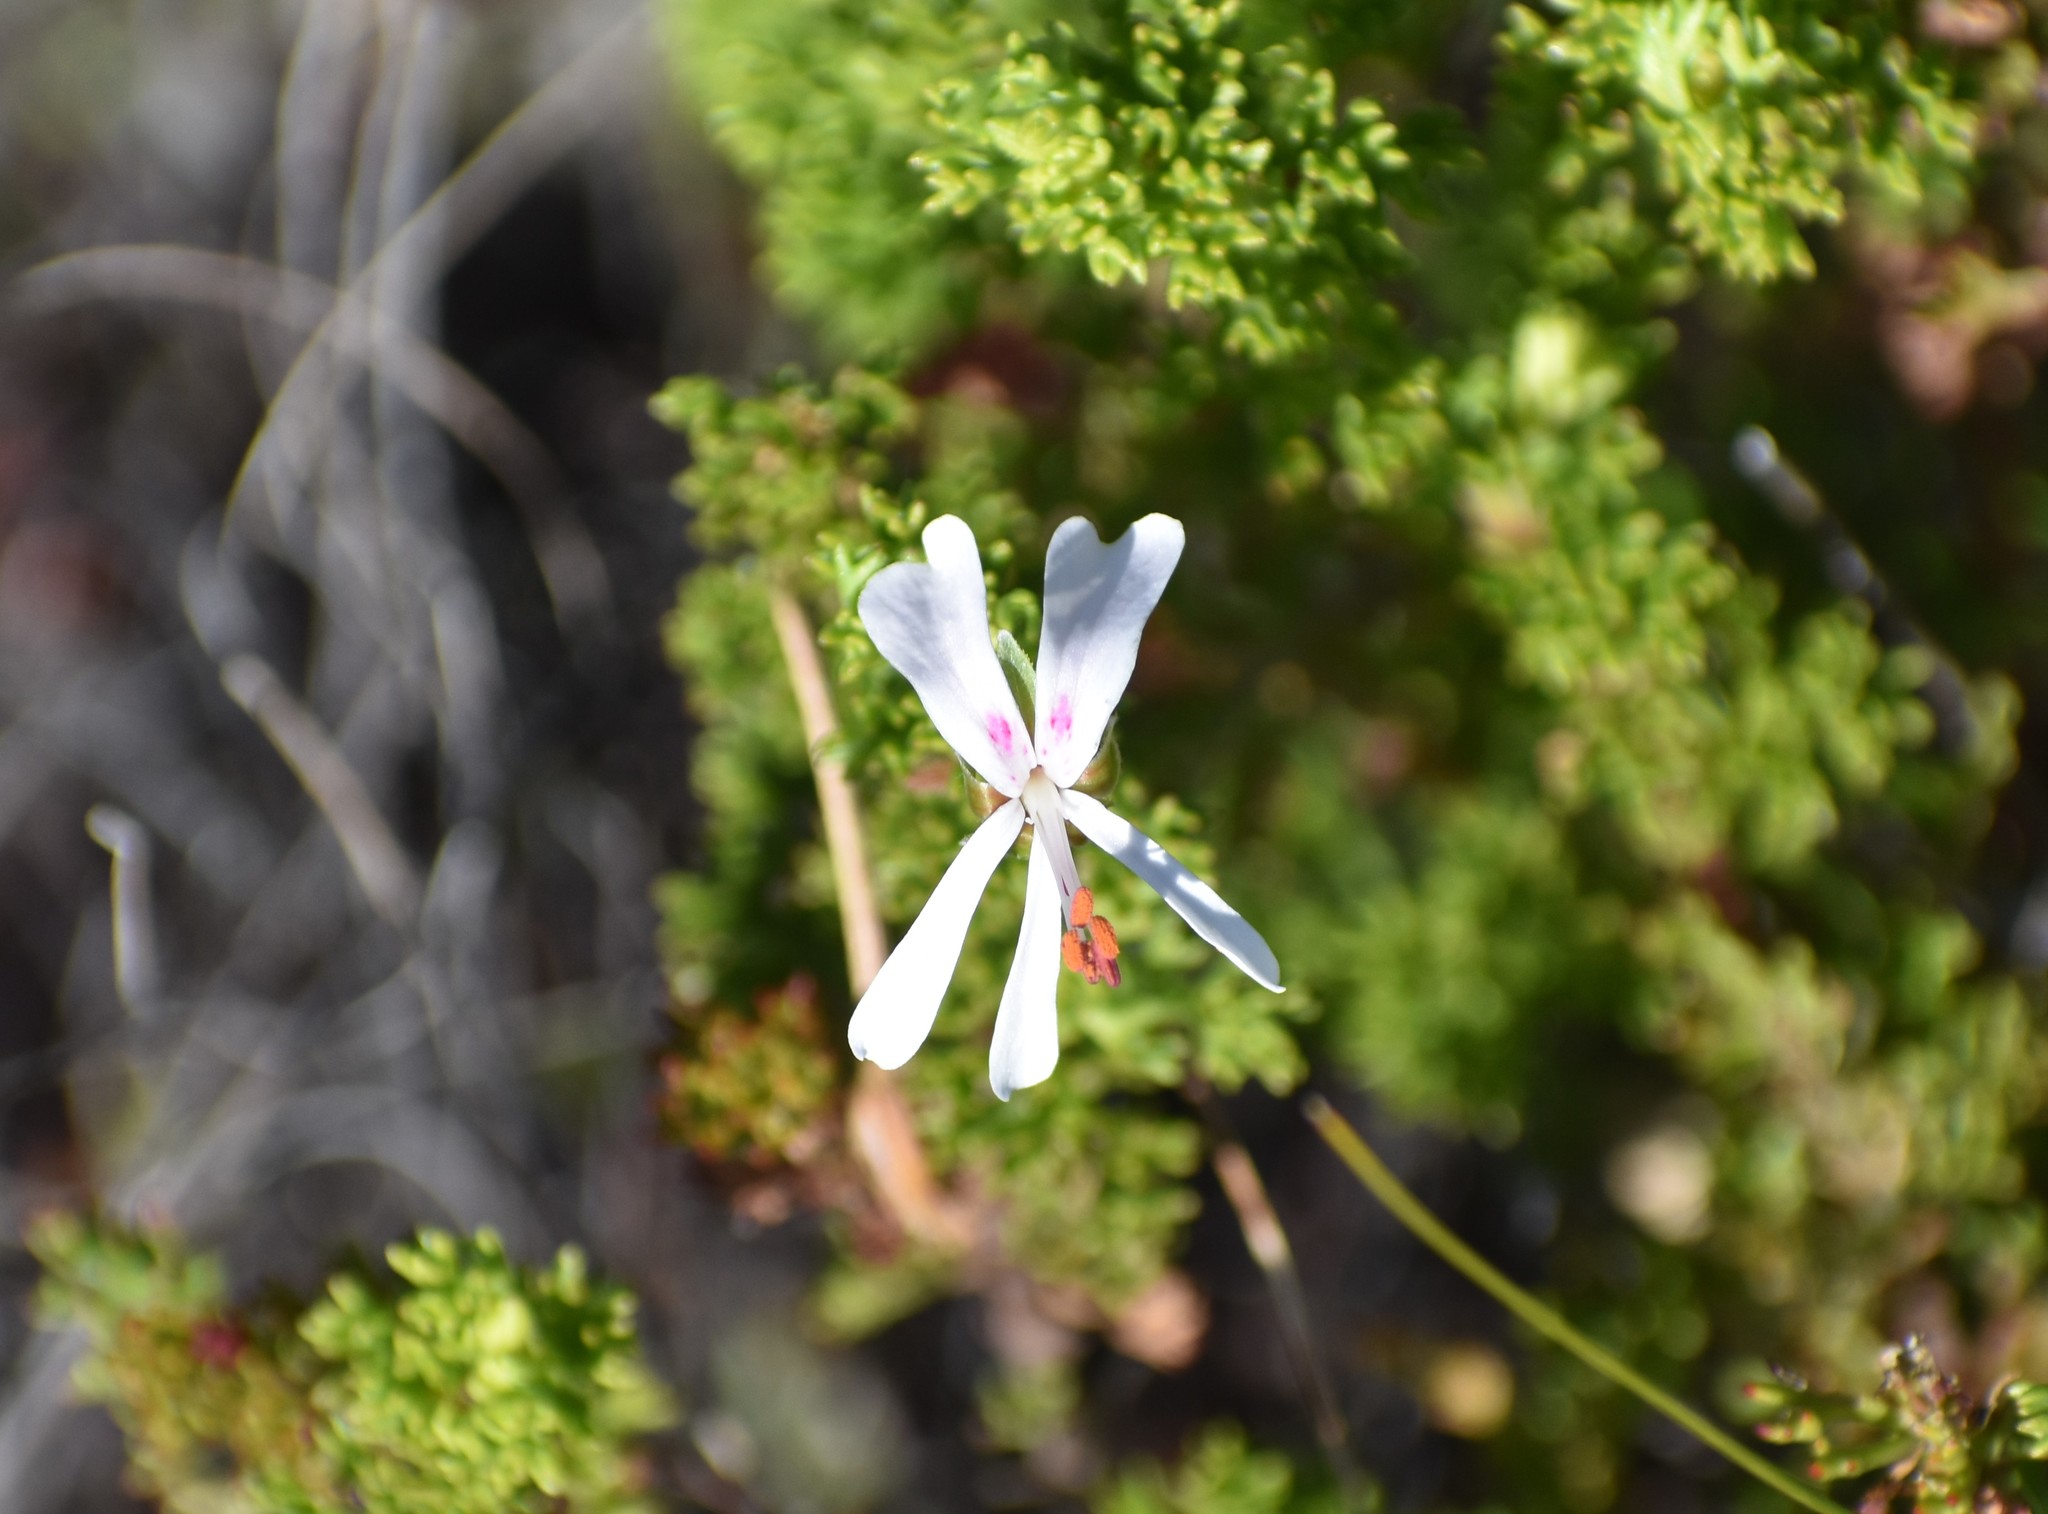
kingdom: Plantae
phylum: Tracheophyta
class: Magnoliopsida
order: Geraniales
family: Geraniaceae
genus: Pelargonium
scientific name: Pelargonium fruticosum
